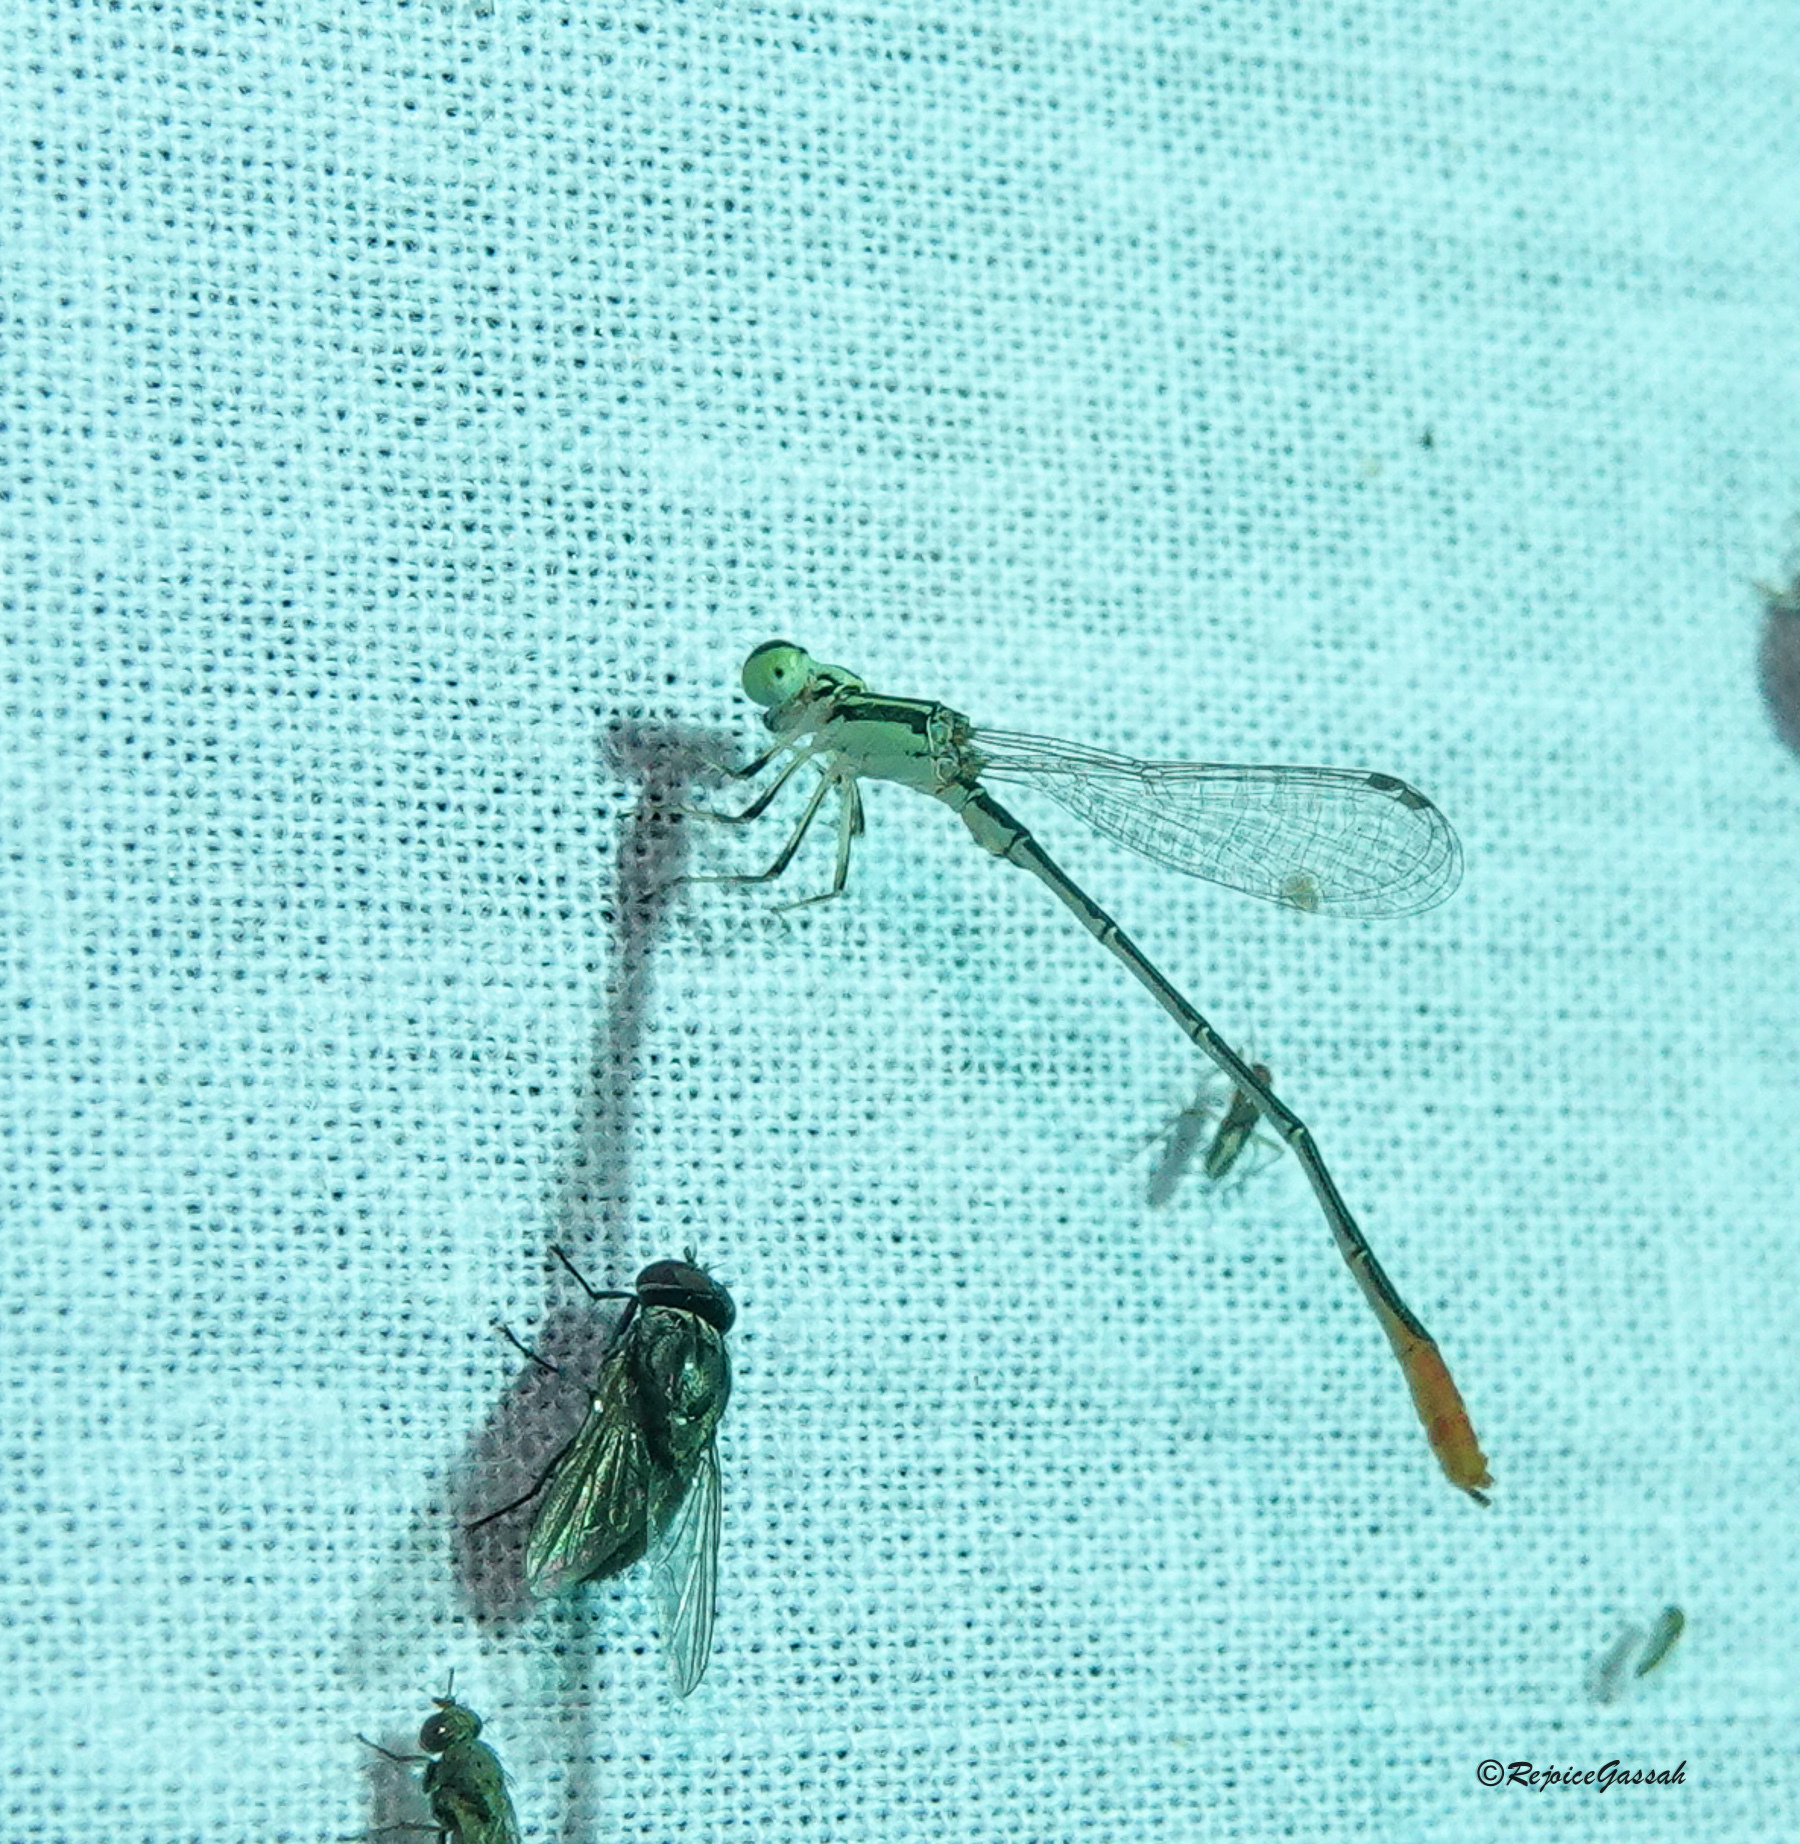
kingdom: Animalia
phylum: Arthropoda
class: Insecta
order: Odonata
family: Coenagrionidae
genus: Agriocnemis
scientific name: Agriocnemis femina
